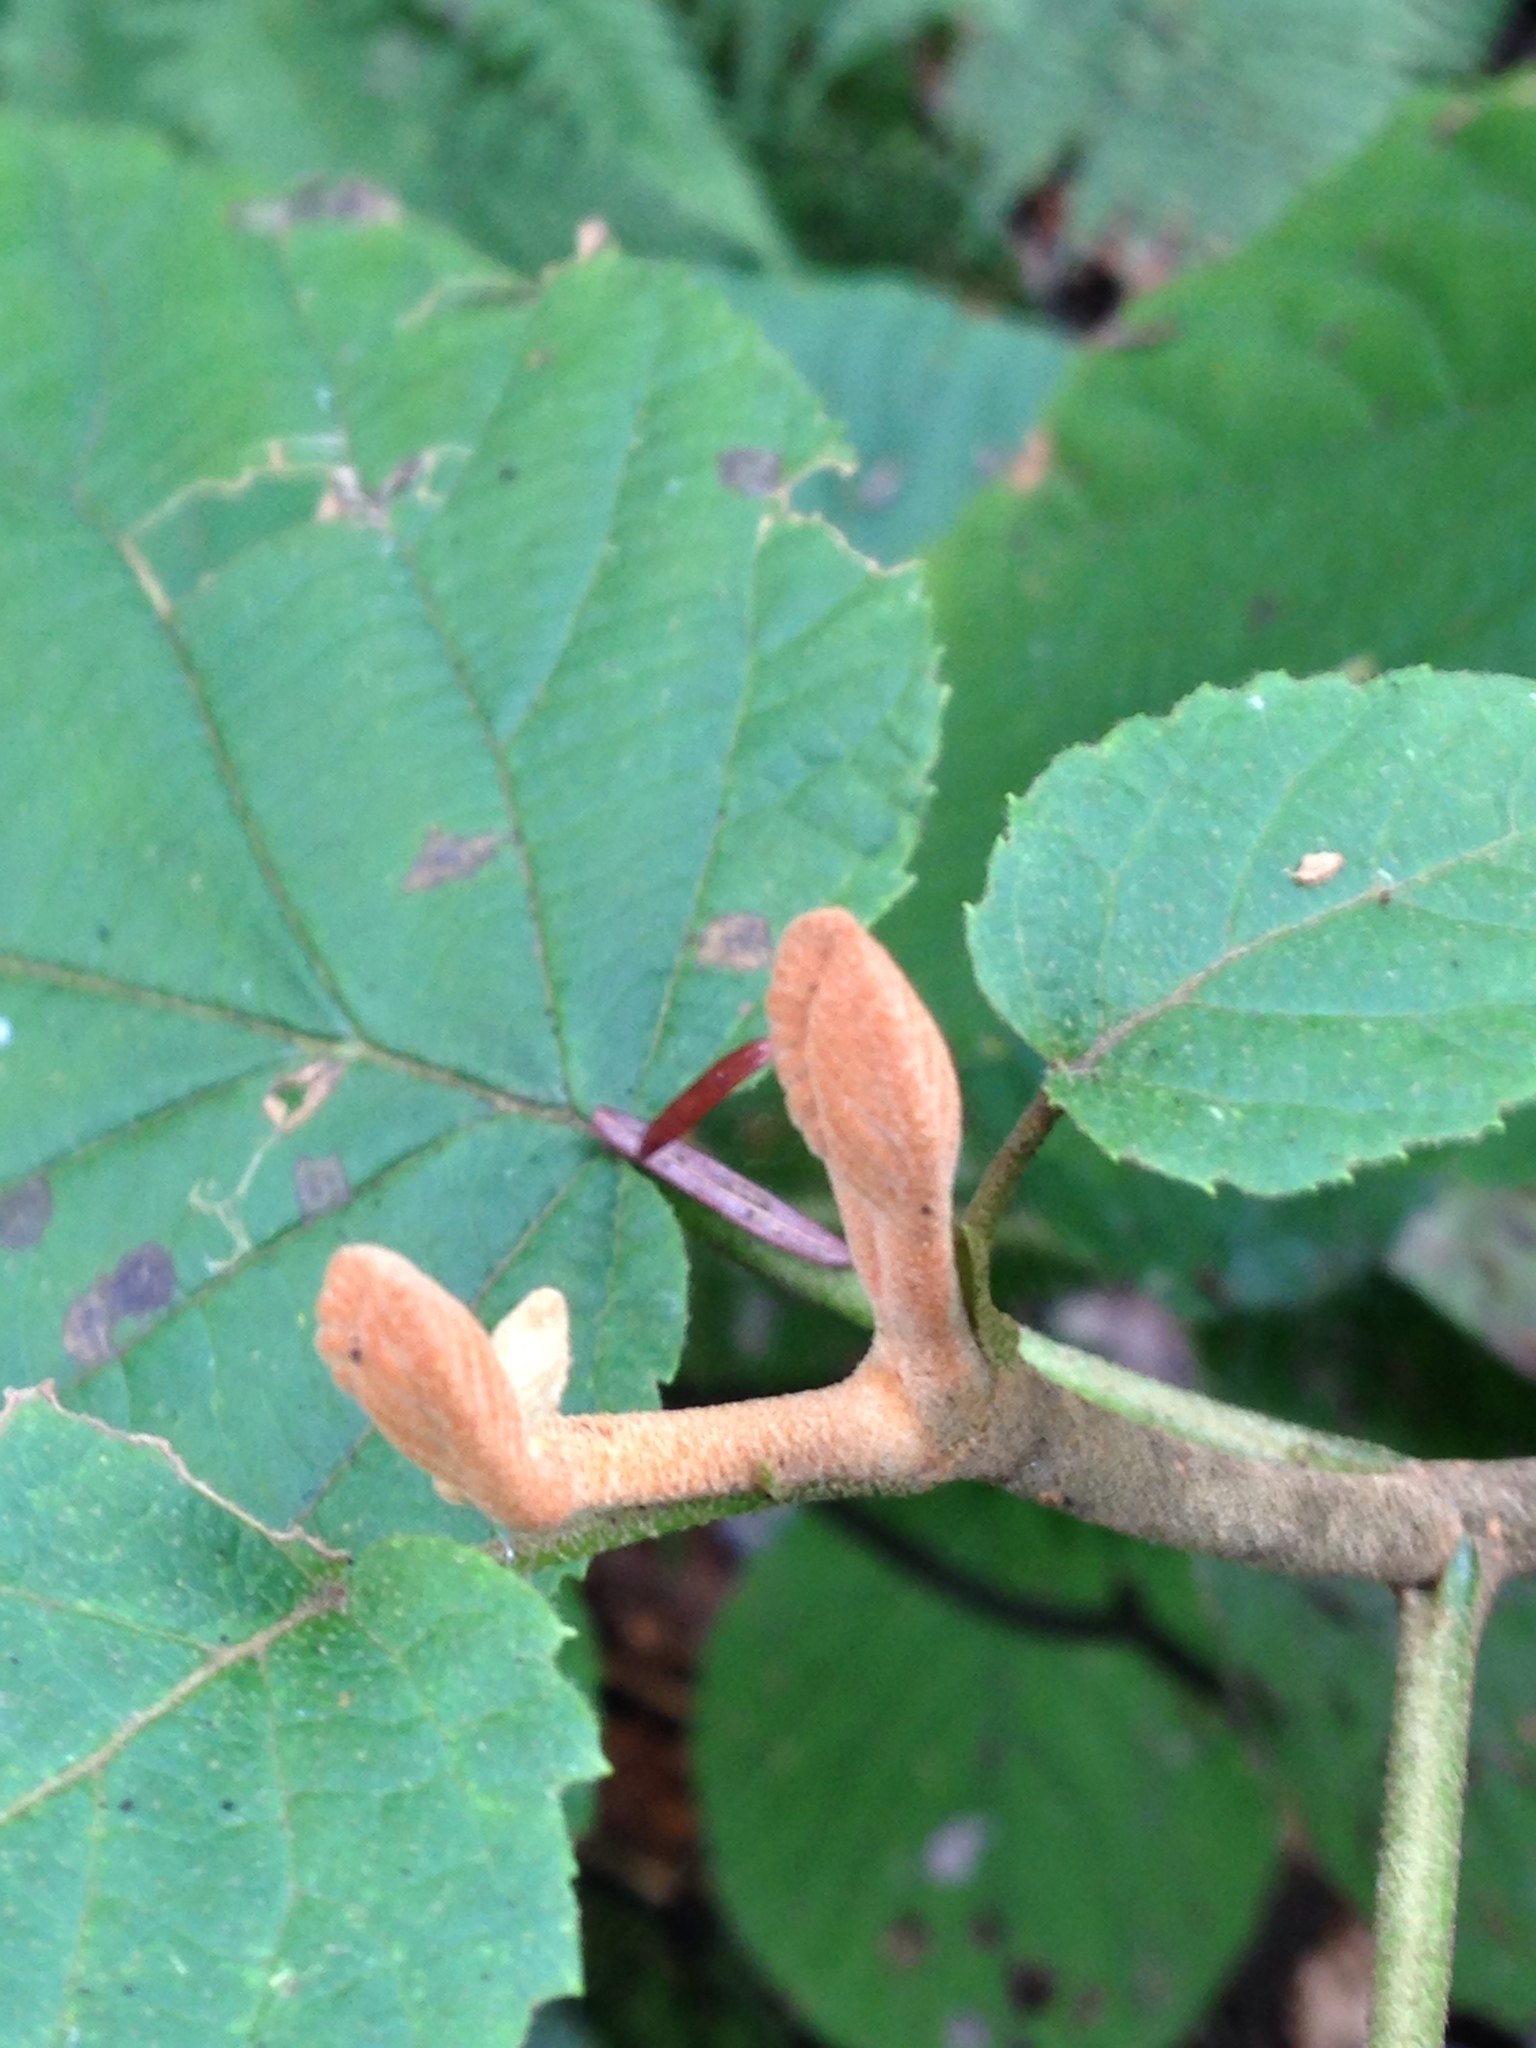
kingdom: Plantae
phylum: Tracheophyta
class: Magnoliopsida
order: Dipsacales
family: Viburnaceae
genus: Viburnum
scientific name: Viburnum lantanoides
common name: Hobblebush
